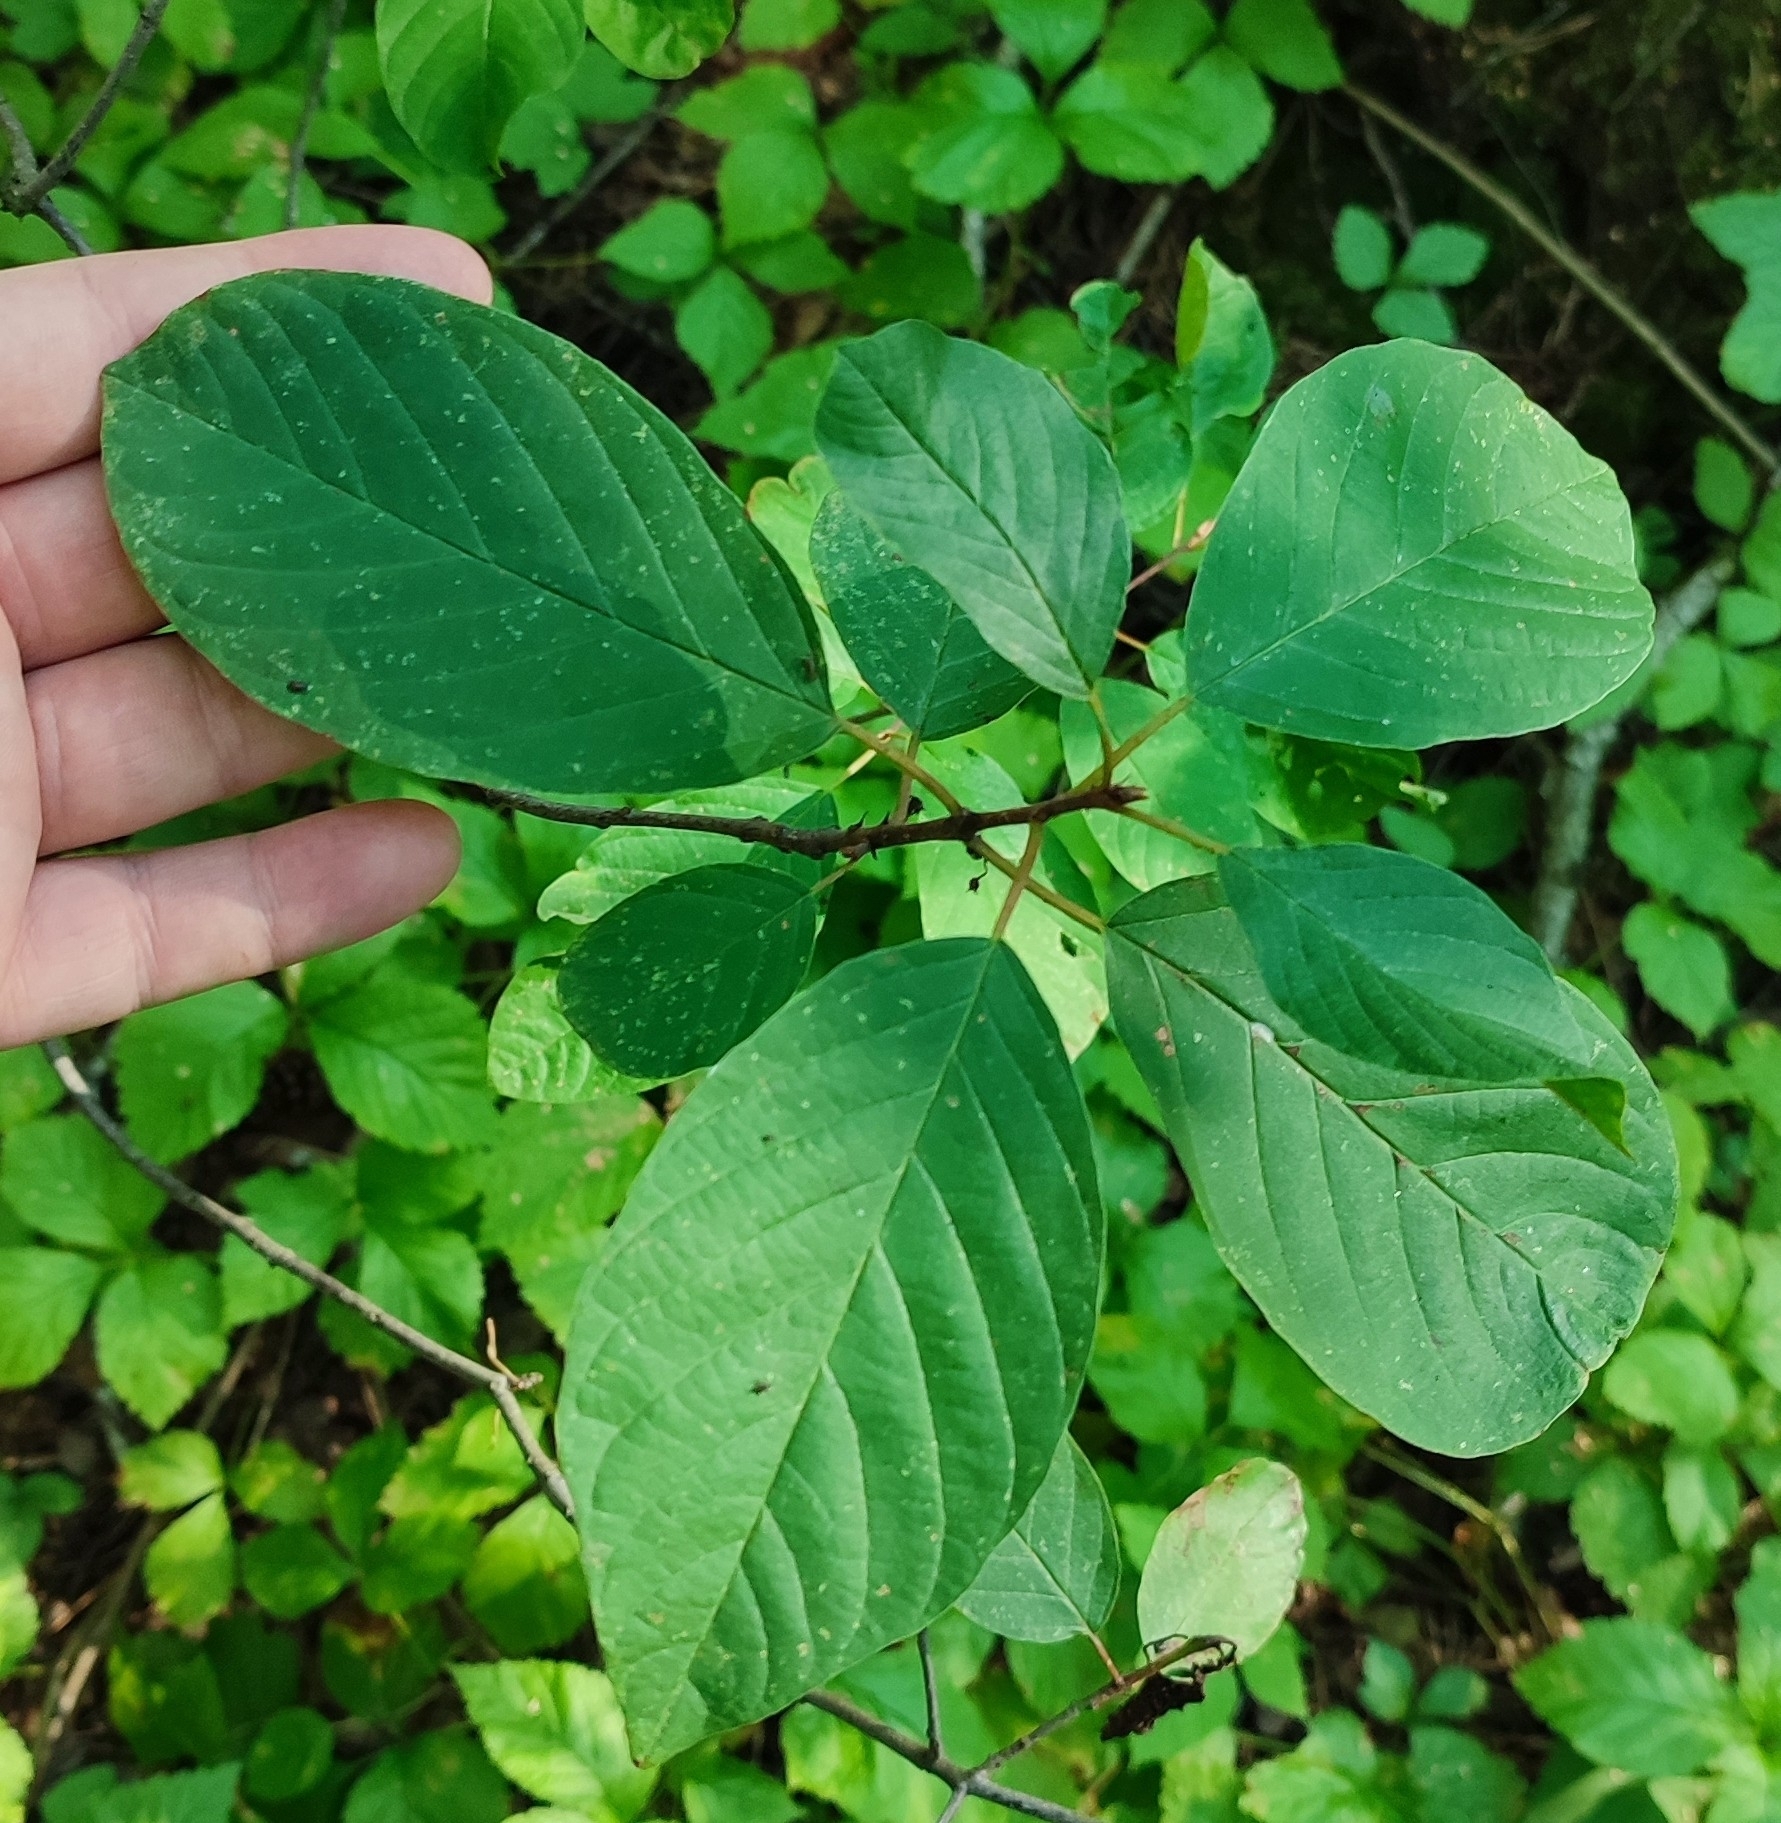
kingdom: Plantae
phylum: Tracheophyta
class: Magnoliopsida
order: Rosales
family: Rhamnaceae
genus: Frangula
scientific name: Frangula alnus
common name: Alder buckthorn
